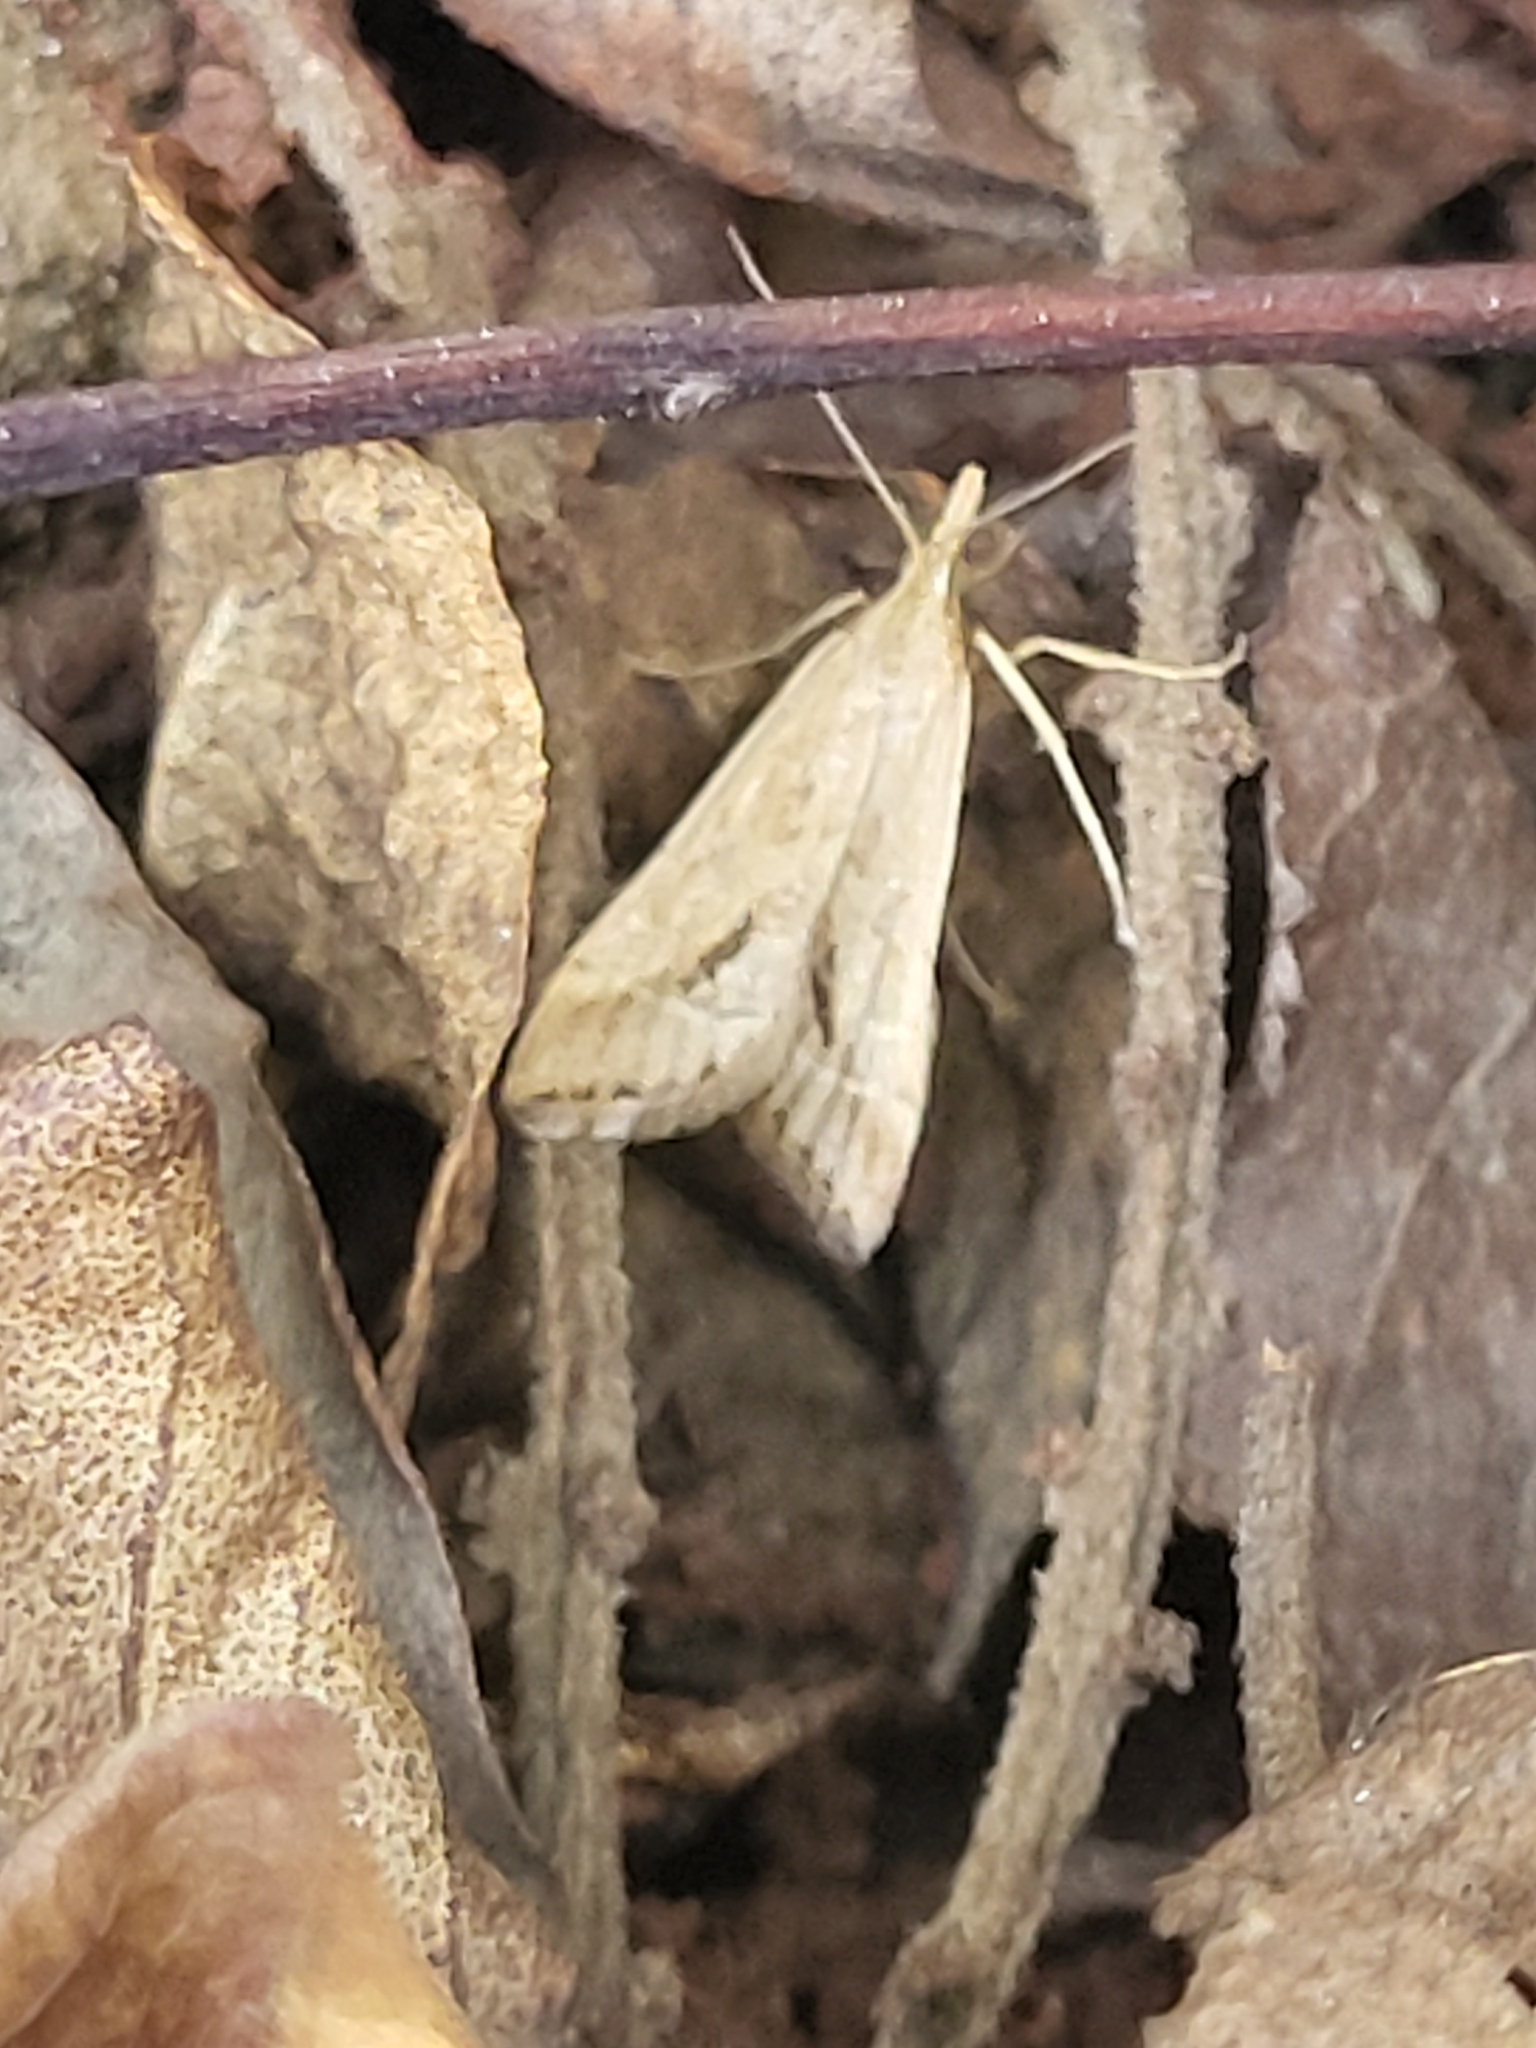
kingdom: Animalia
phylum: Arthropoda
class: Insecta
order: Lepidoptera
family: Crambidae
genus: Diasemia
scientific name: Diasemia monostigma
